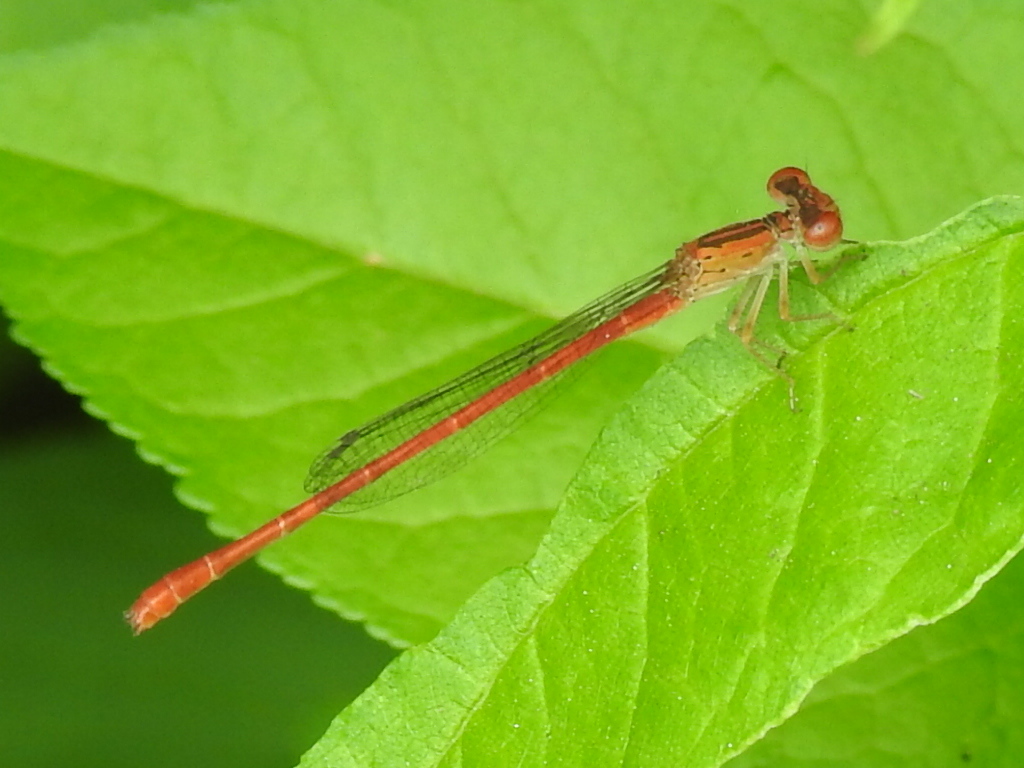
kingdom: Animalia
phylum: Arthropoda
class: Insecta
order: Odonata
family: Coenagrionidae
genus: Telebasis
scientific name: Telebasis salva
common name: Desert firetail
